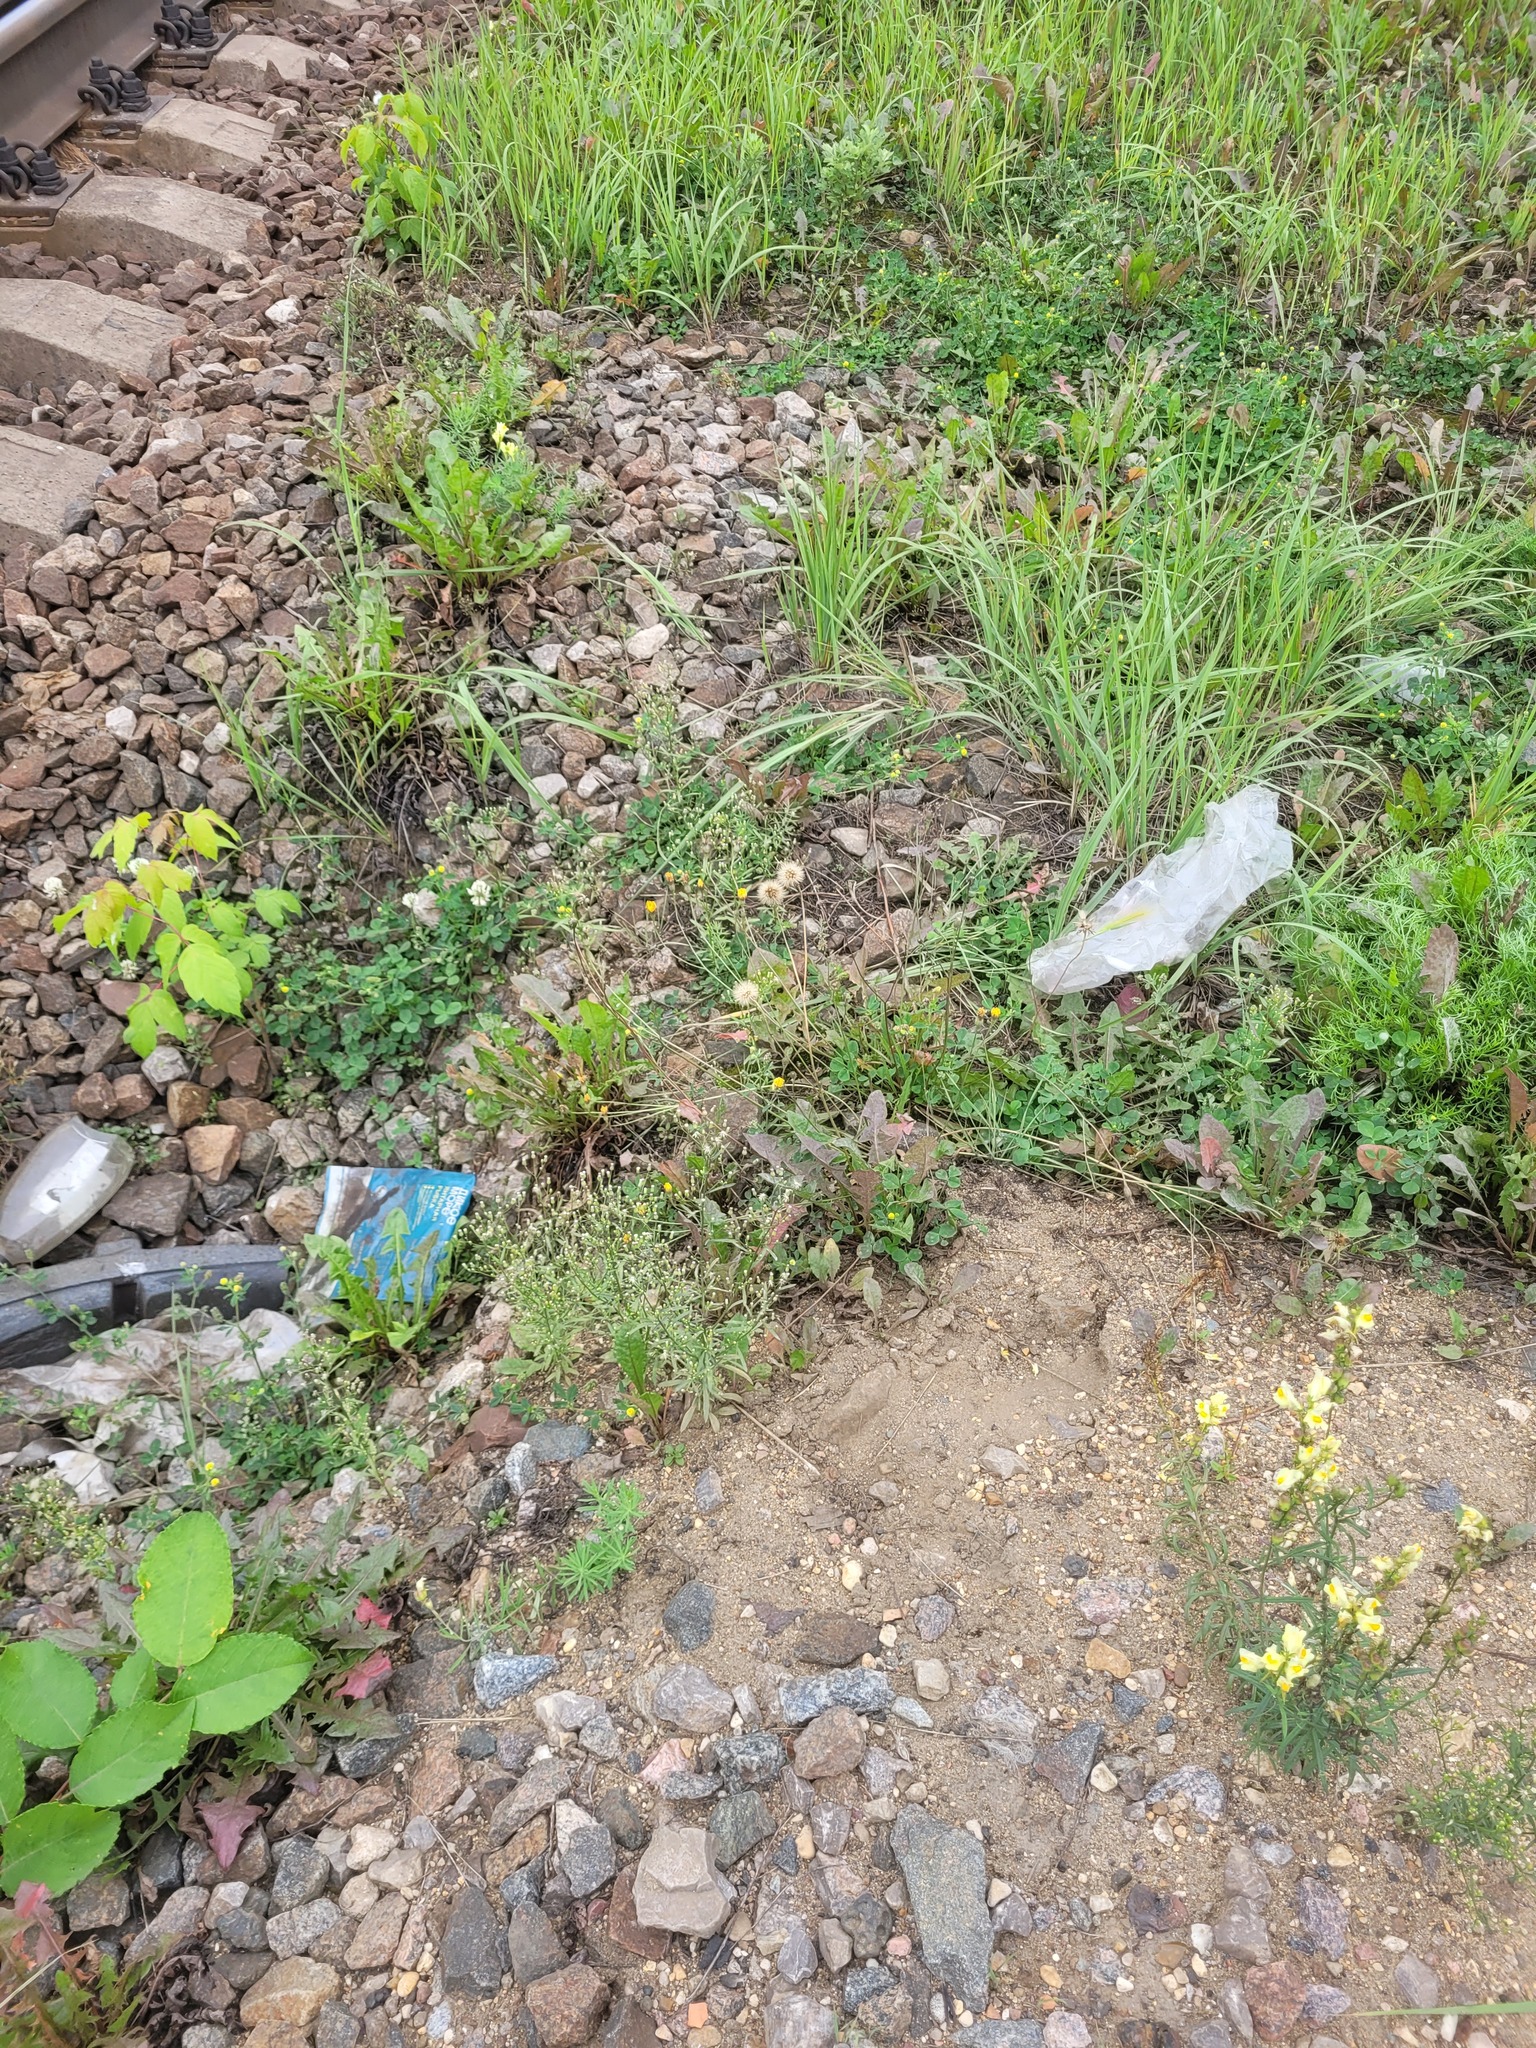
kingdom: Plantae
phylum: Tracheophyta
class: Magnoliopsida
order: Asterales
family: Asteraceae
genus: Scorzoneroides
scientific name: Scorzoneroides autumnalis
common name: Autumn hawkbit
